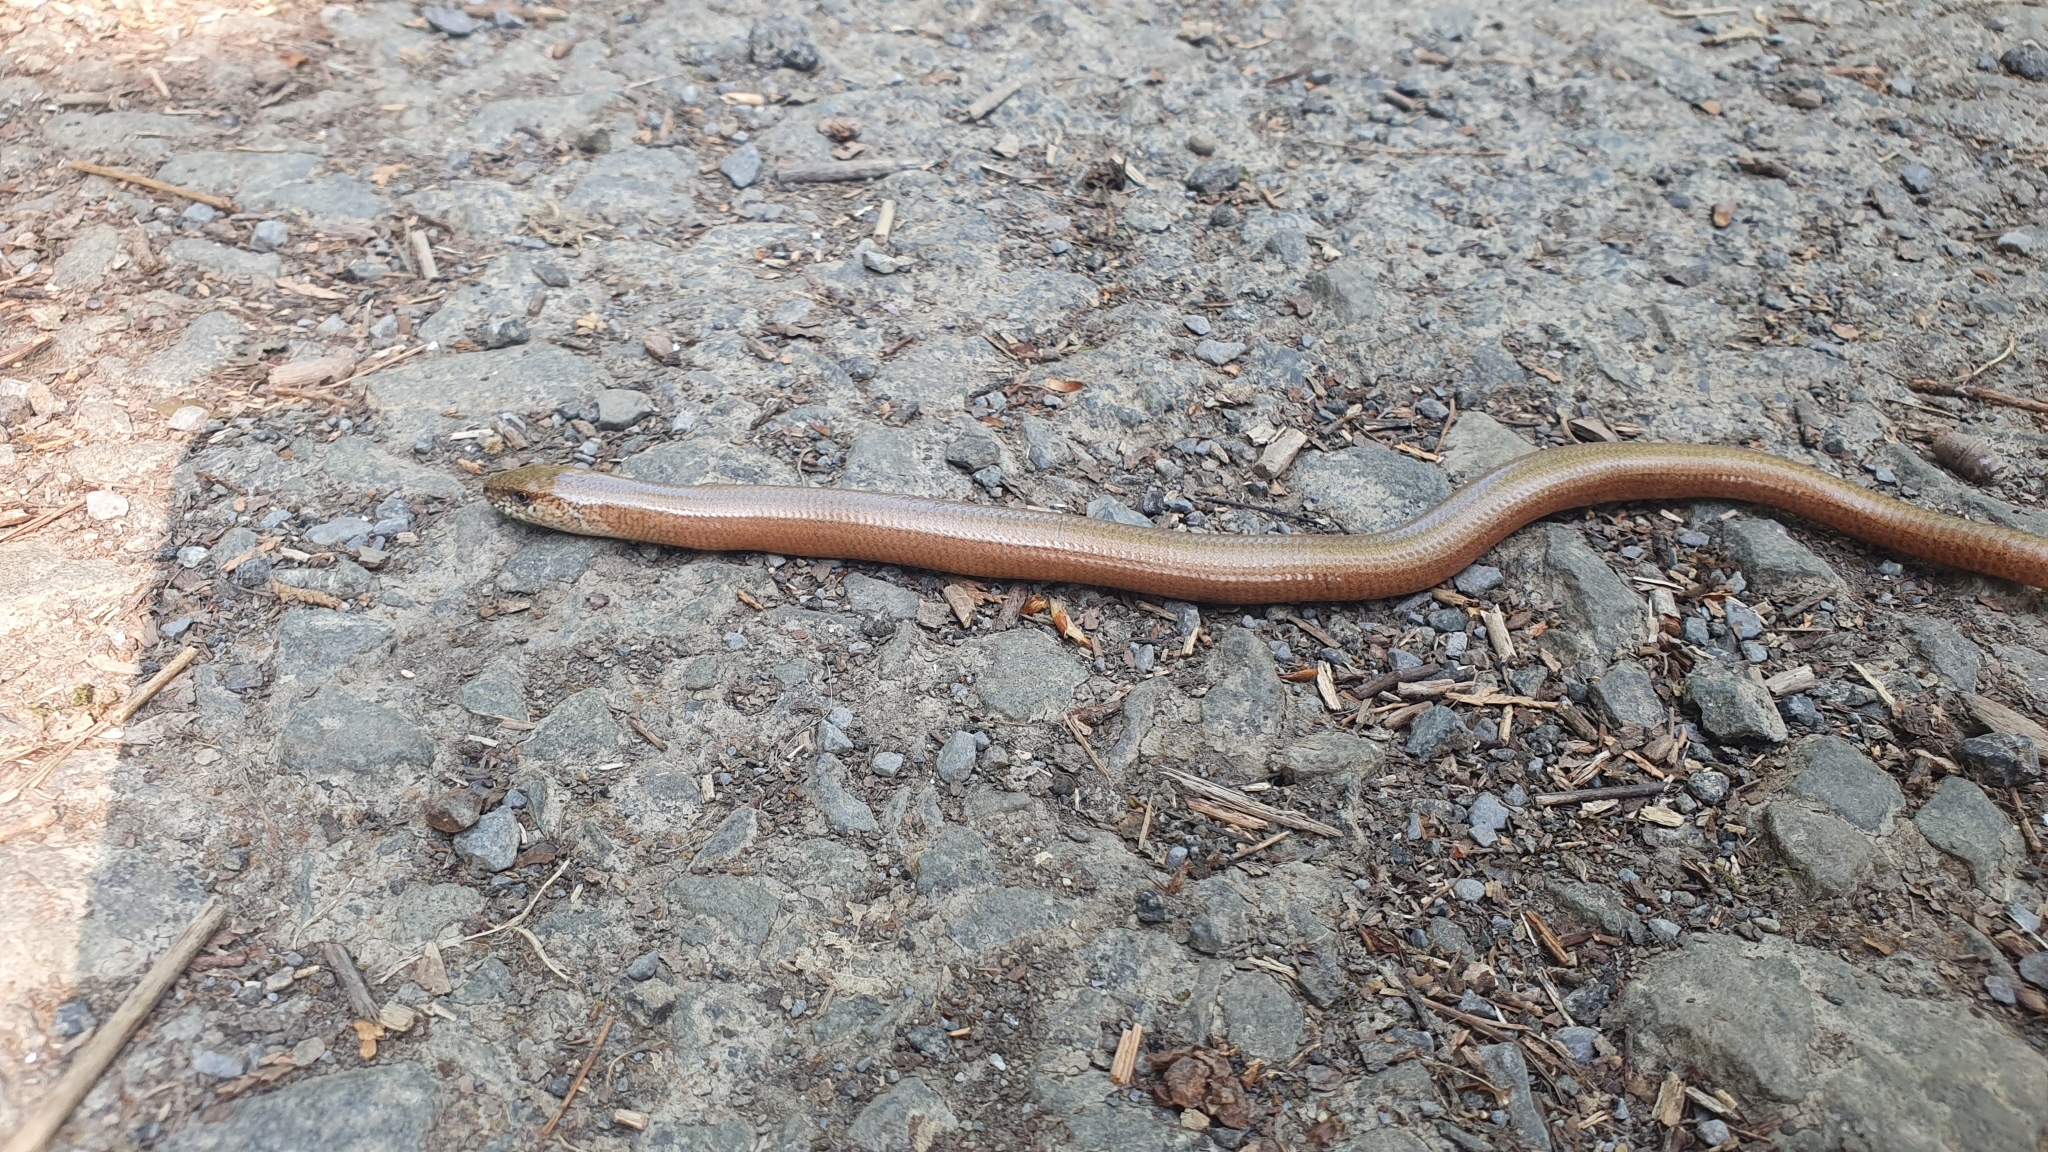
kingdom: Animalia
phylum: Chordata
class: Squamata
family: Anguidae
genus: Anguis
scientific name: Anguis fragilis
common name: Slow worm
